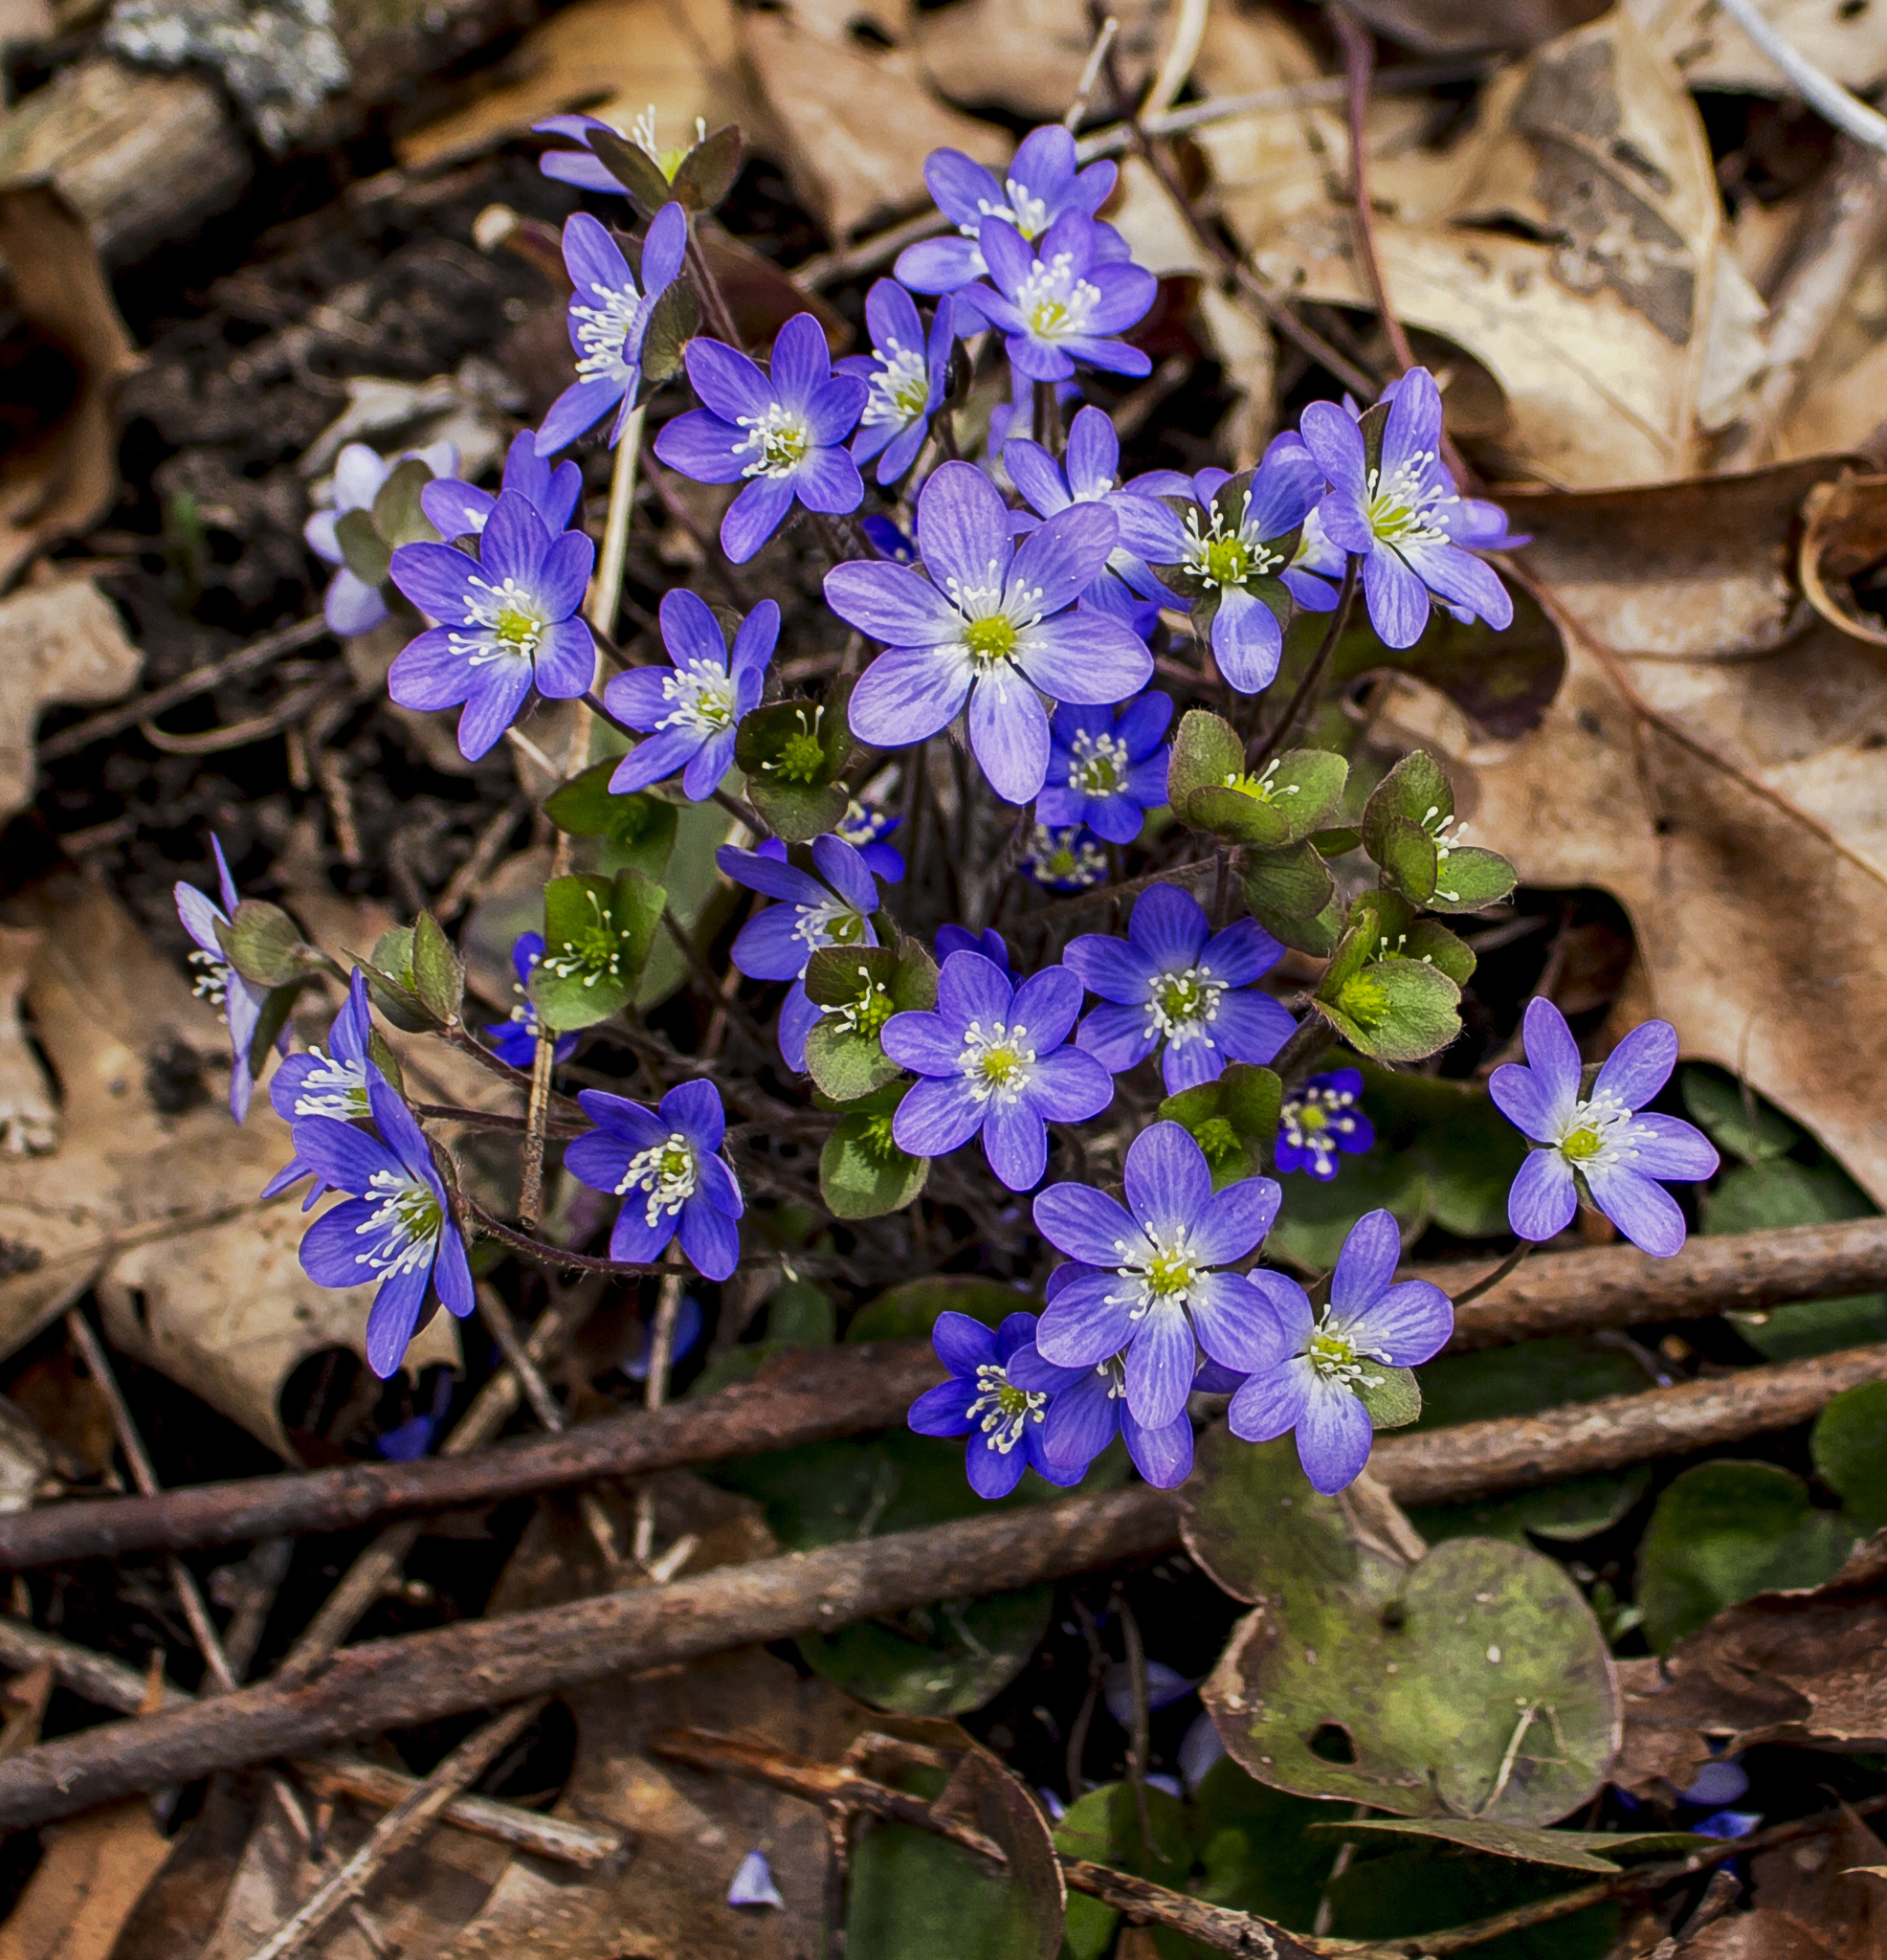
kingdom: Plantae
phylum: Tracheophyta
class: Magnoliopsida
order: Ranunculales
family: Ranunculaceae
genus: Hepatica
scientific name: Hepatica americana
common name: American hepatica
